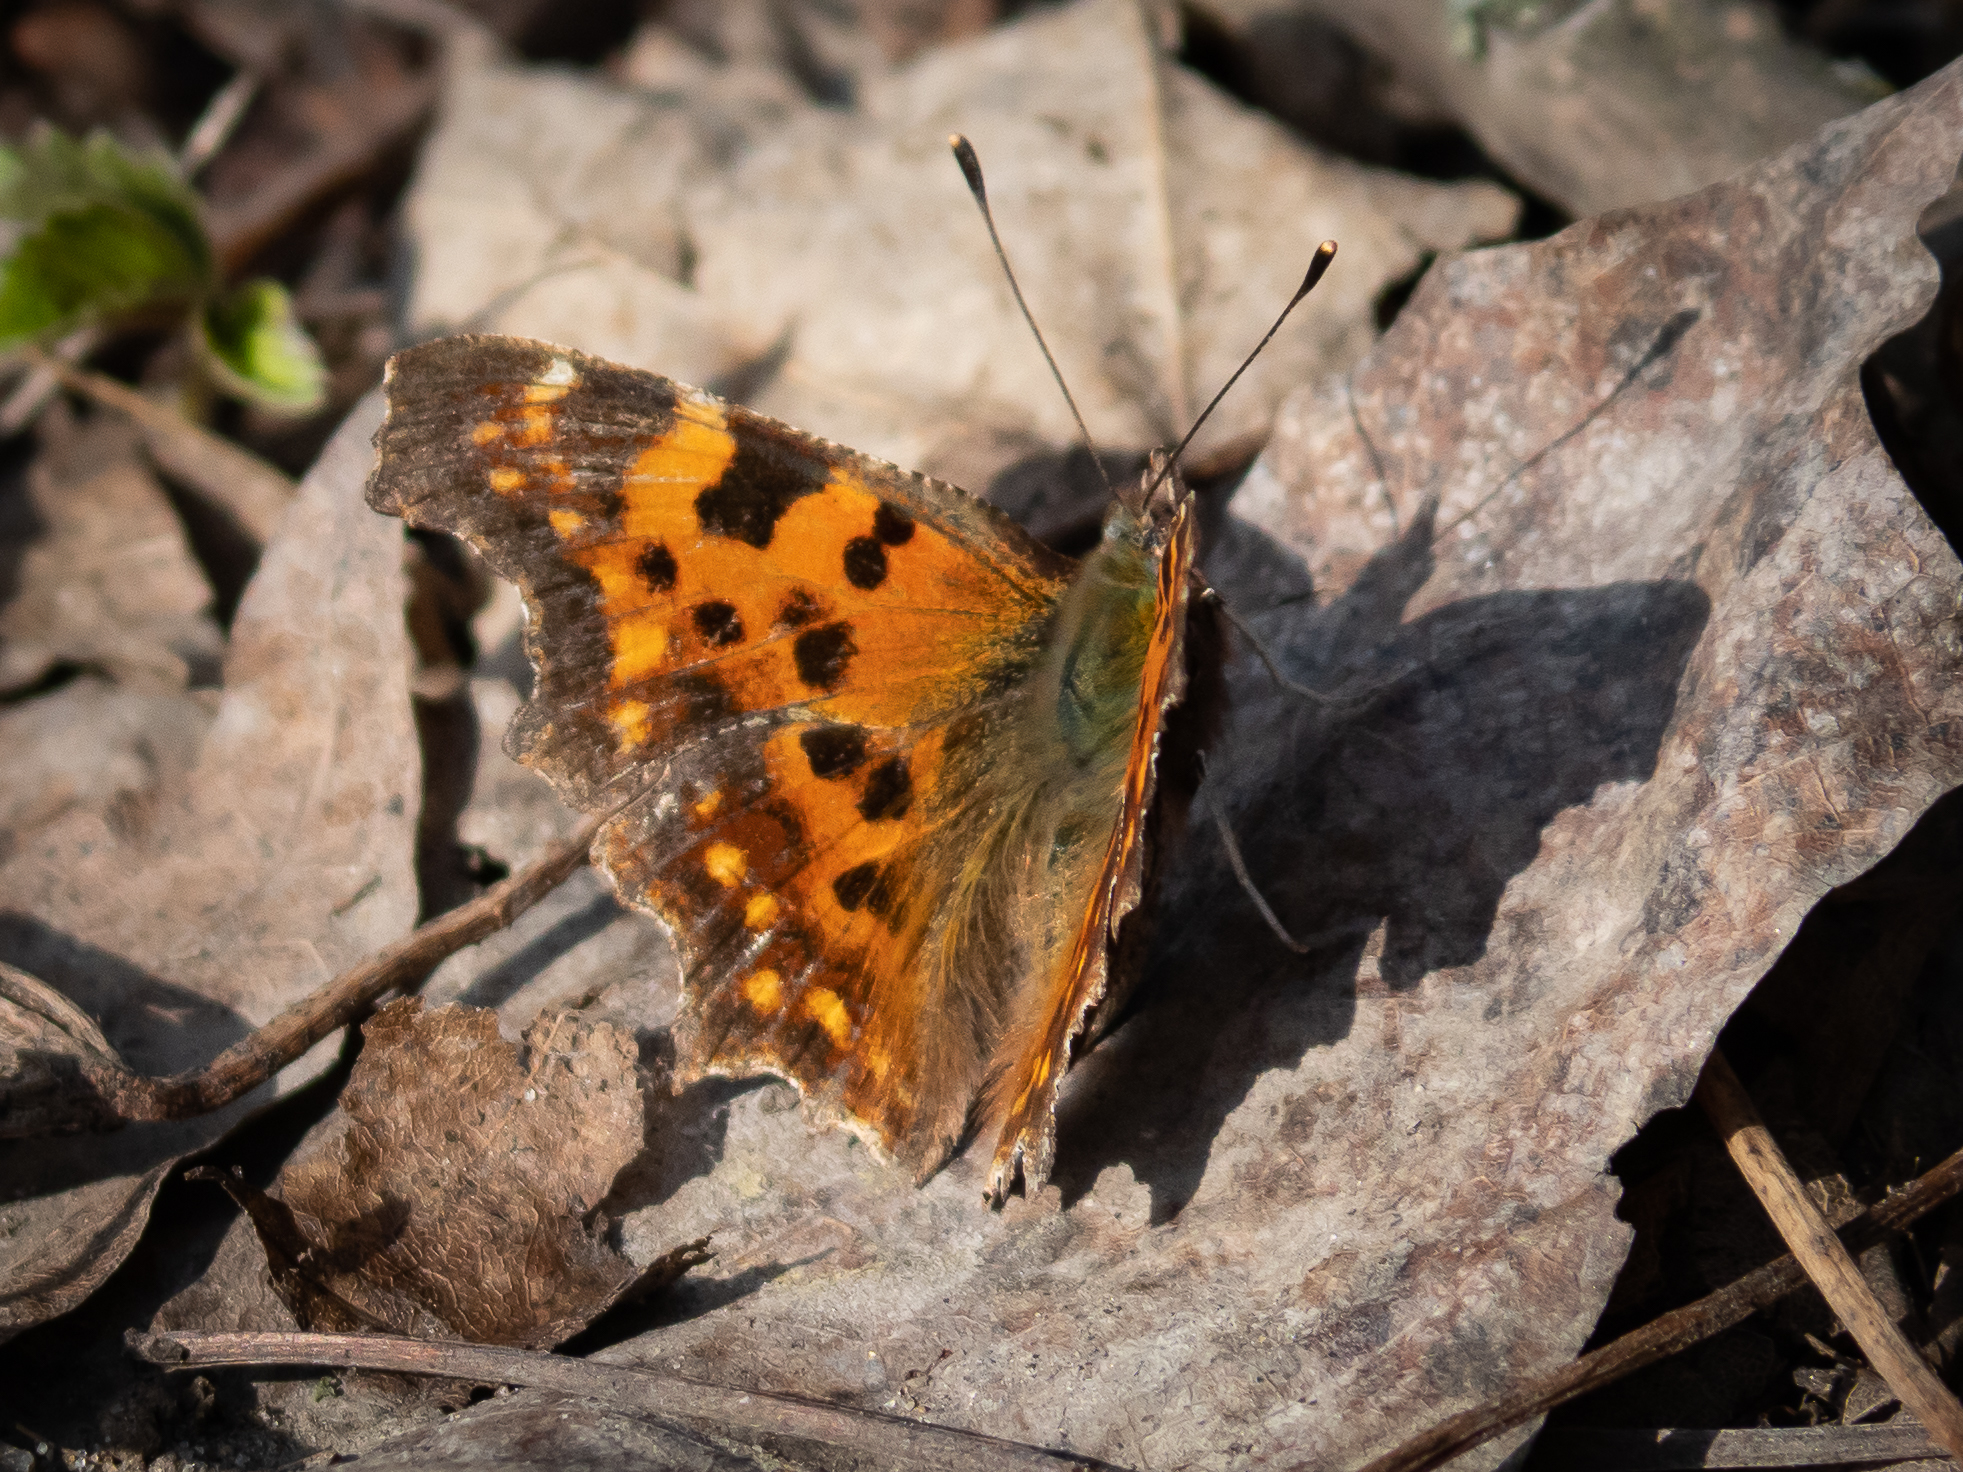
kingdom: Animalia
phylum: Arthropoda
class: Insecta
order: Lepidoptera
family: Nymphalidae
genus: Polygonia
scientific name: Polygonia c-album
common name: Comma
